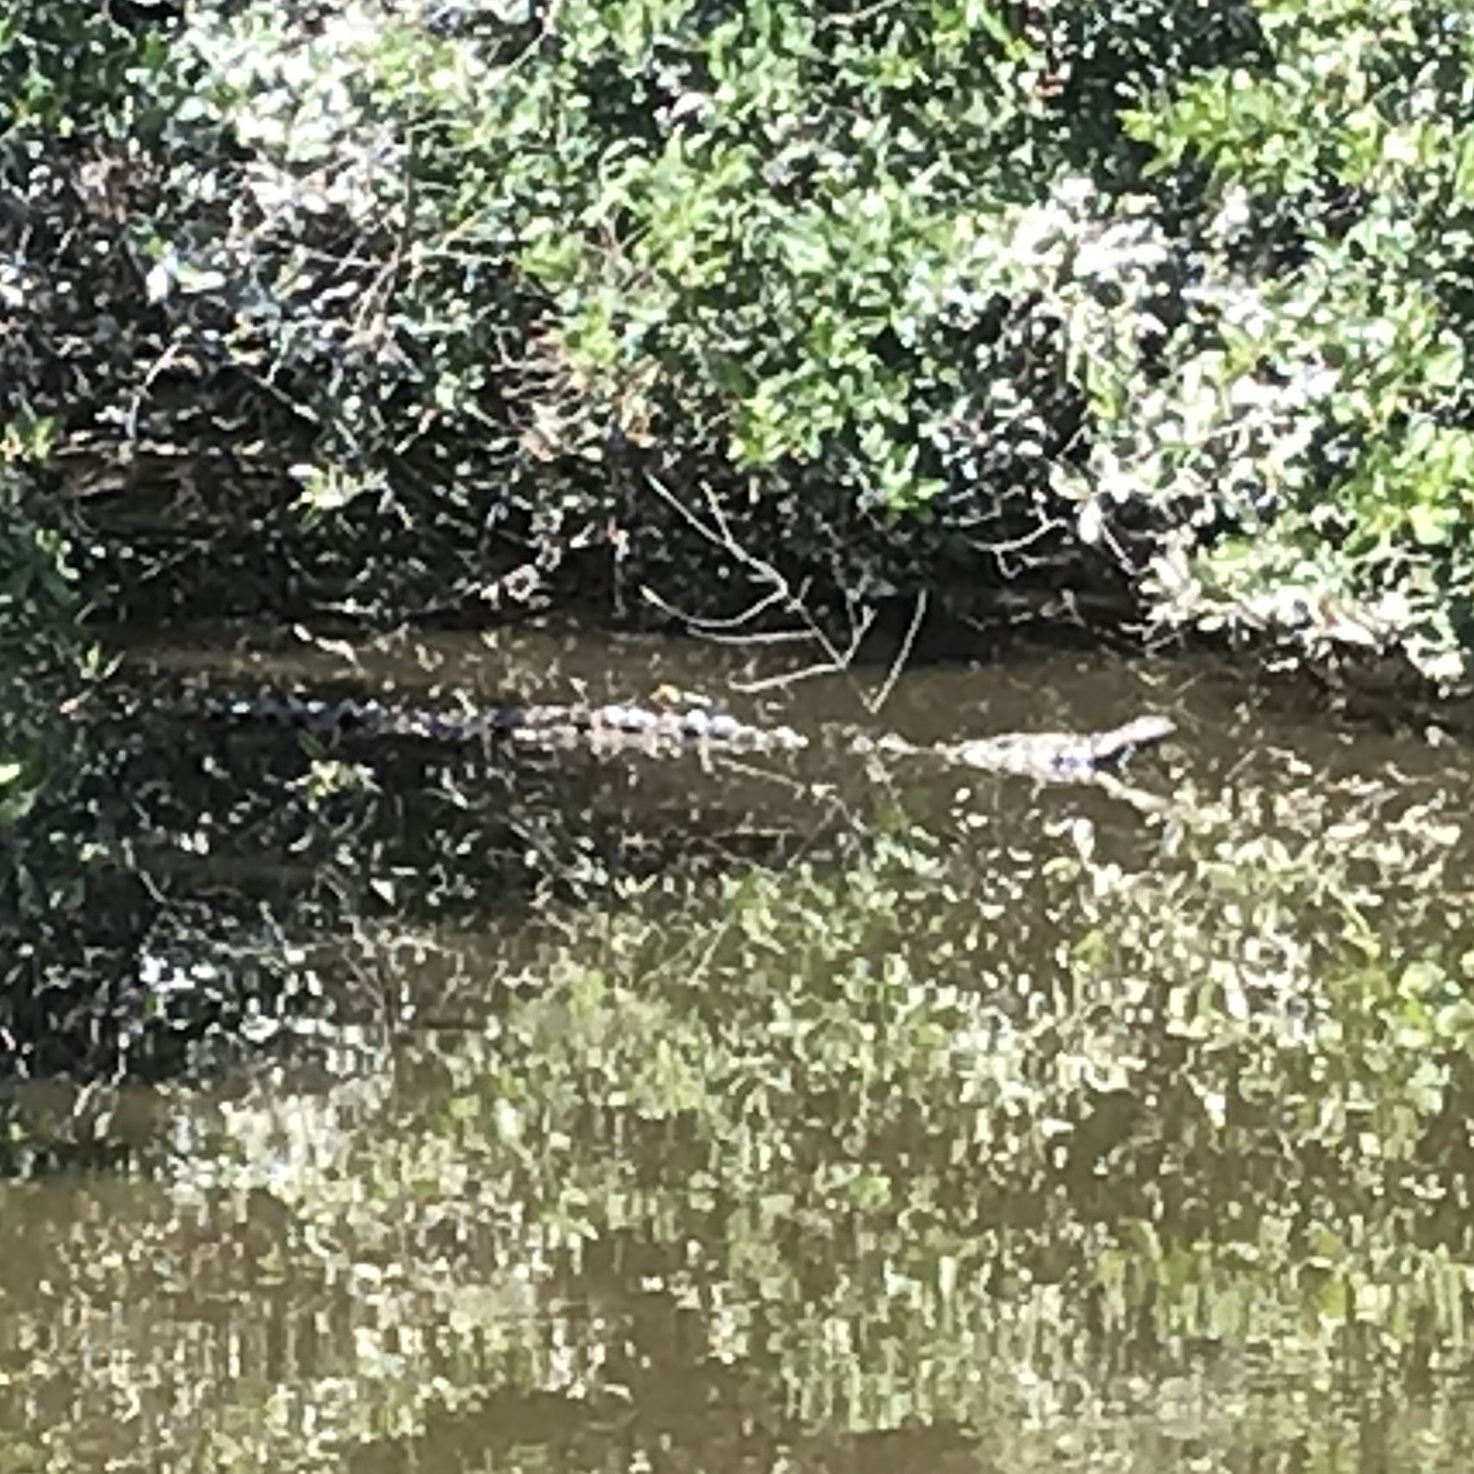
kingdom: Animalia
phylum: Chordata
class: Crocodylia
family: Crocodylidae
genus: Crocodylus
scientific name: Crocodylus acutus
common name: American crocodile
